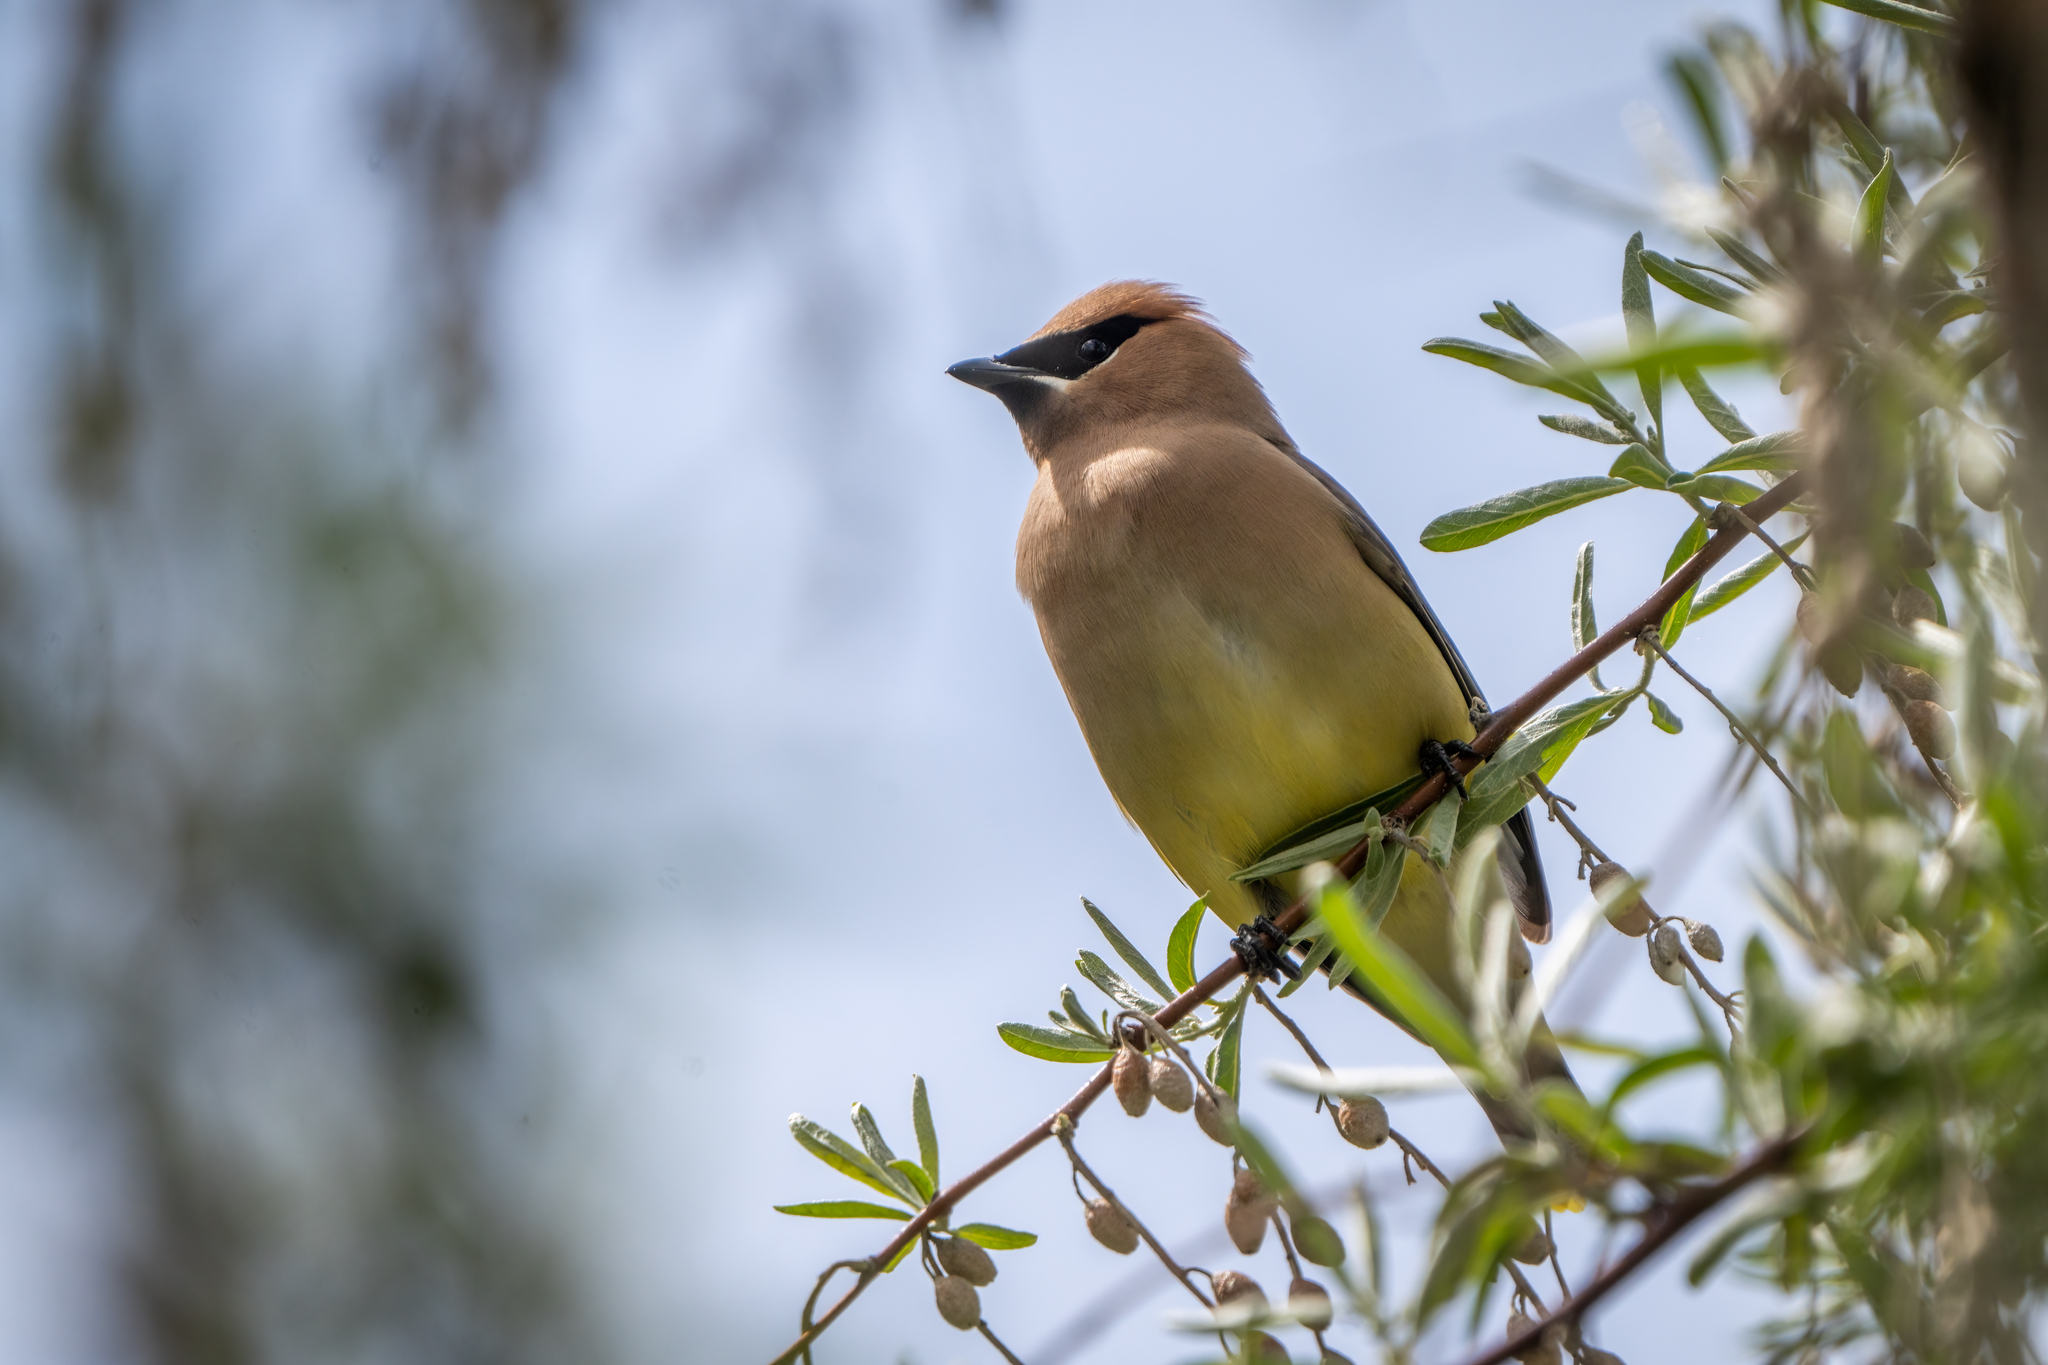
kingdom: Animalia
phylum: Chordata
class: Aves
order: Passeriformes
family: Bombycillidae
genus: Bombycilla
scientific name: Bombycilla cedrorum
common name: Cedar waxwing
